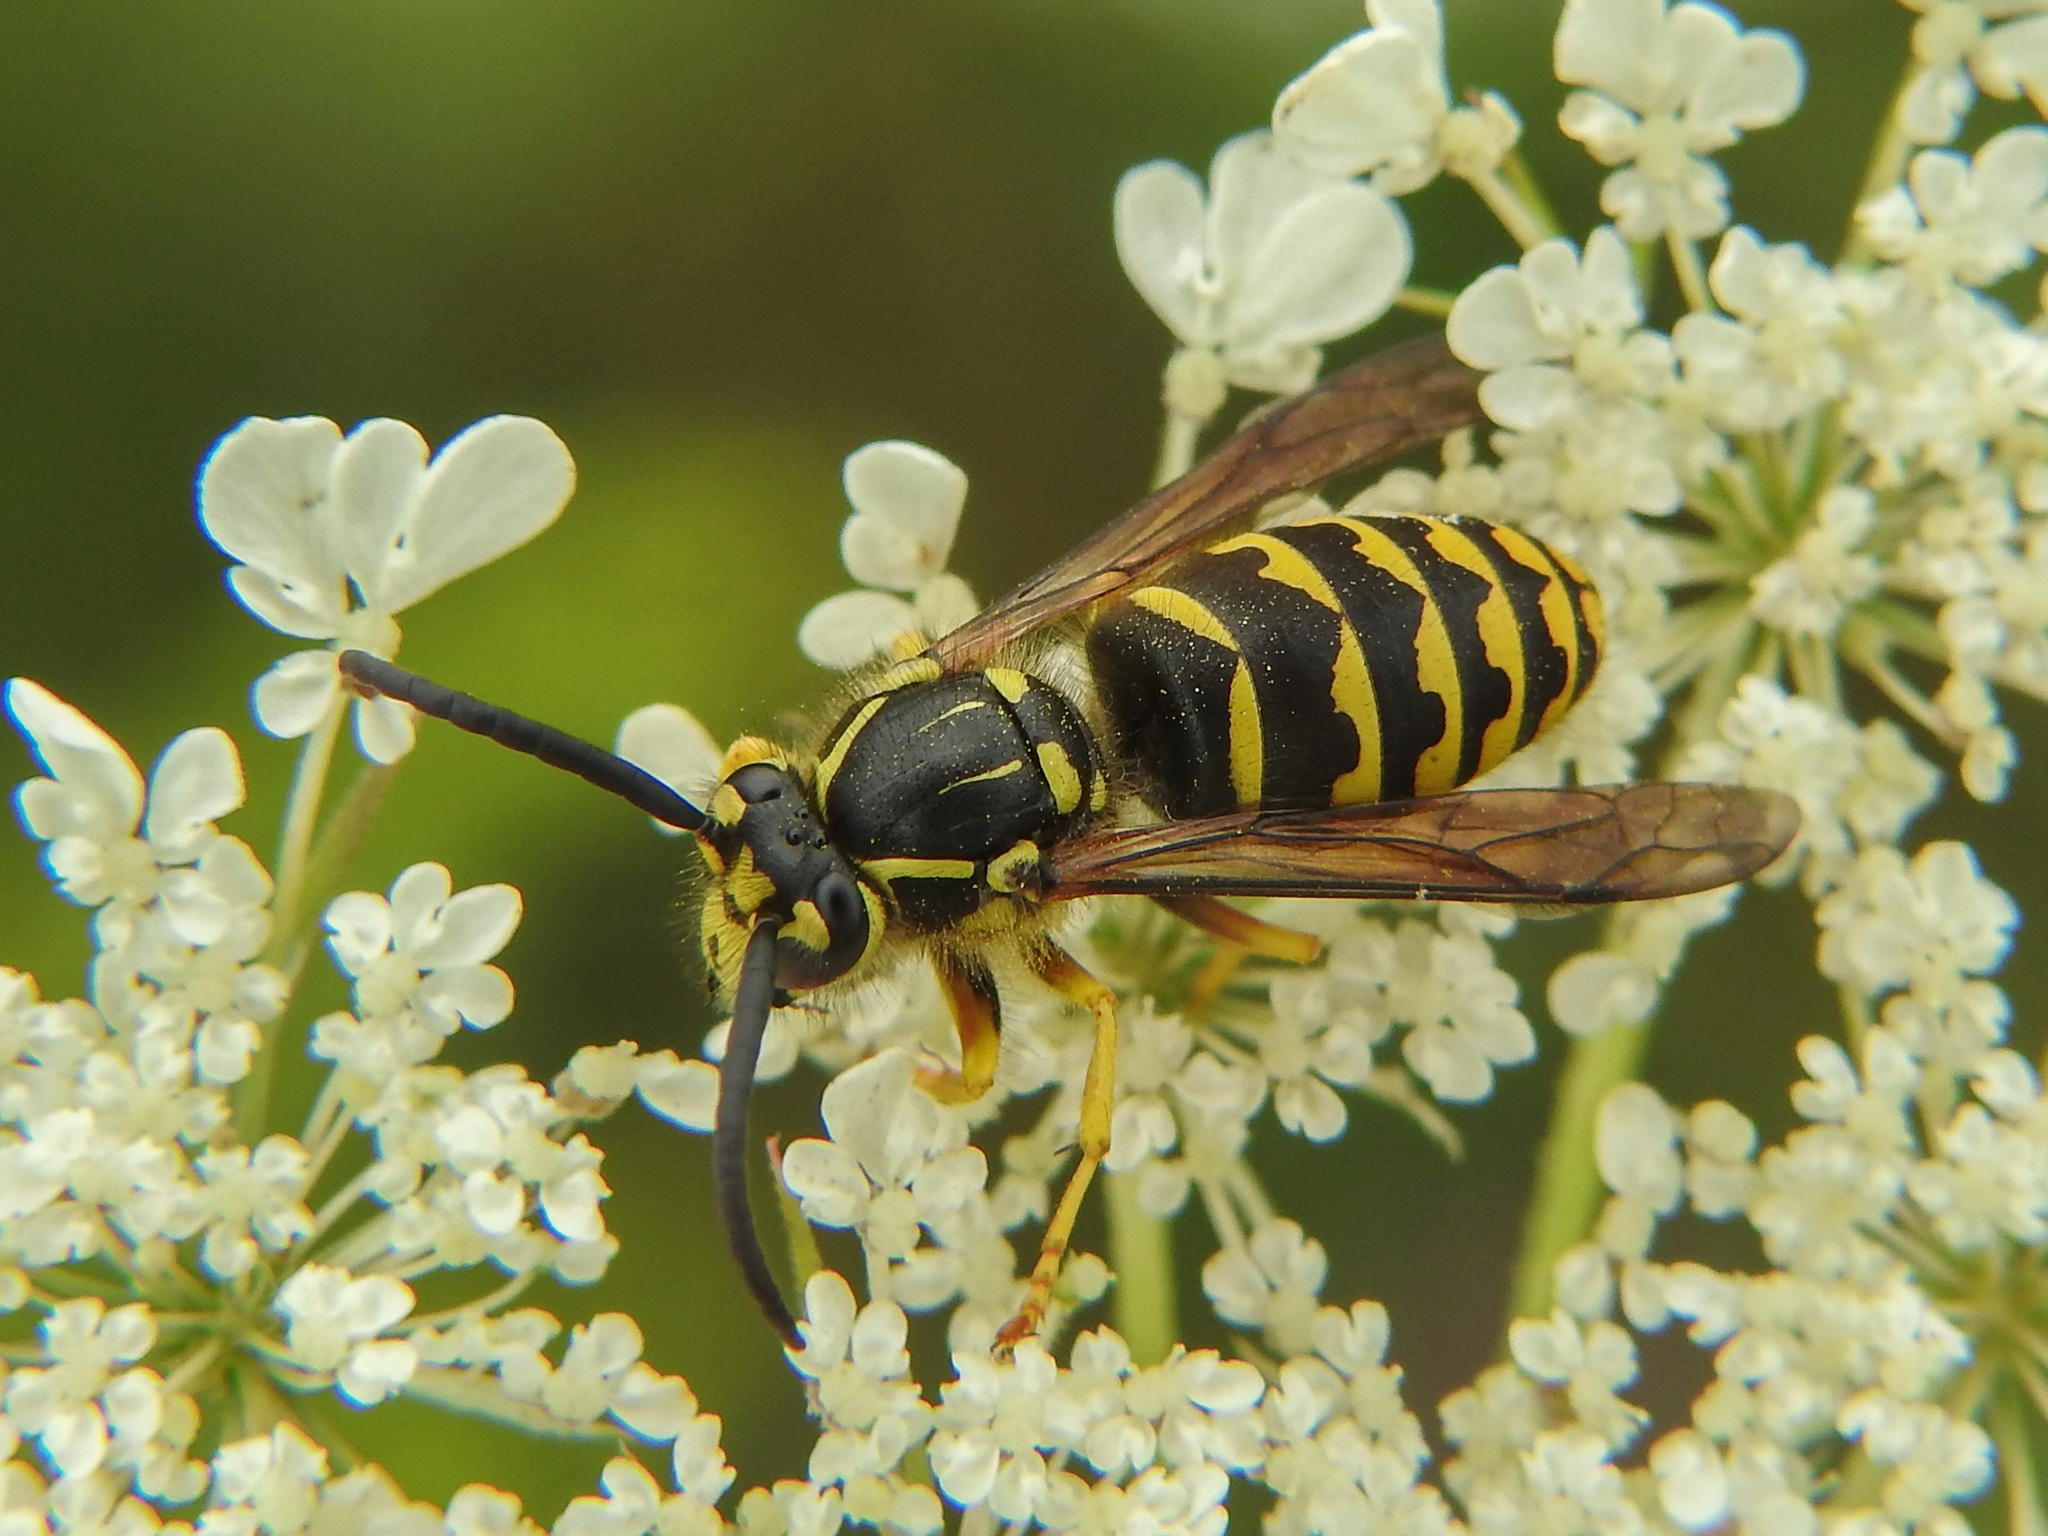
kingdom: Animalia
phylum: Arthropoda
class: Insecta
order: Hymenoptera
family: Vespidae
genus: Dolichovespula
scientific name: Dolichovespula arenaria
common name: Aerial yellowjacket
